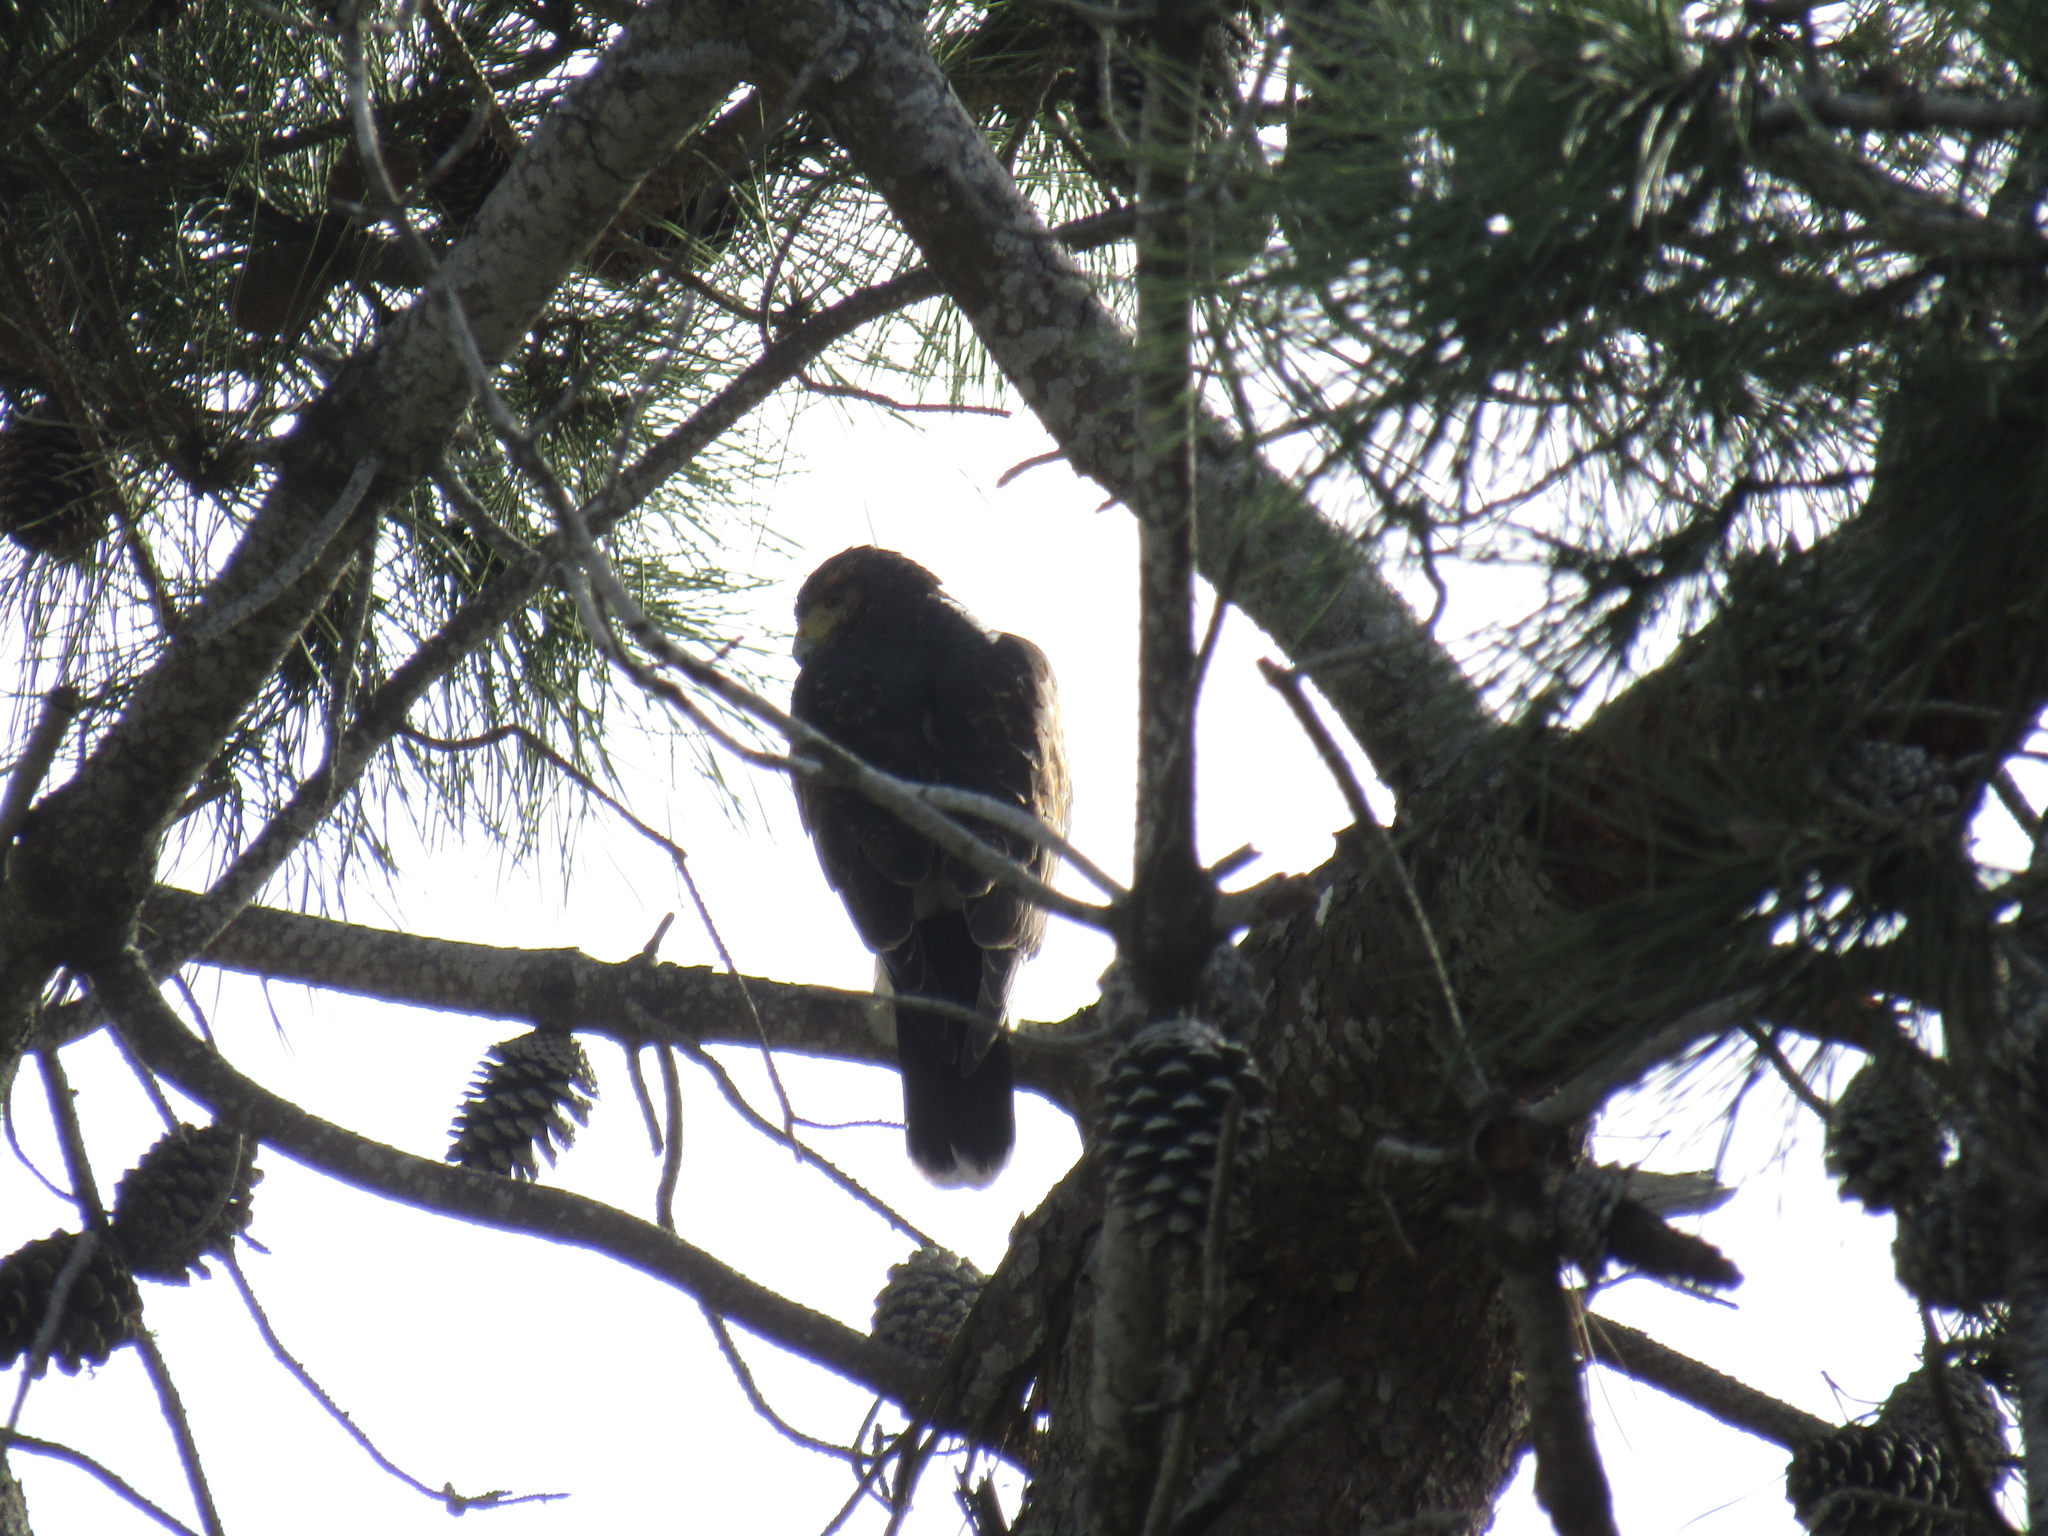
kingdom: Animalia
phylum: Chordata
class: Aves
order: Accipitriformes
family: Accipitridae
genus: Parabuteo
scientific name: Parabuteo unicinctus
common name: Harris's hawk
